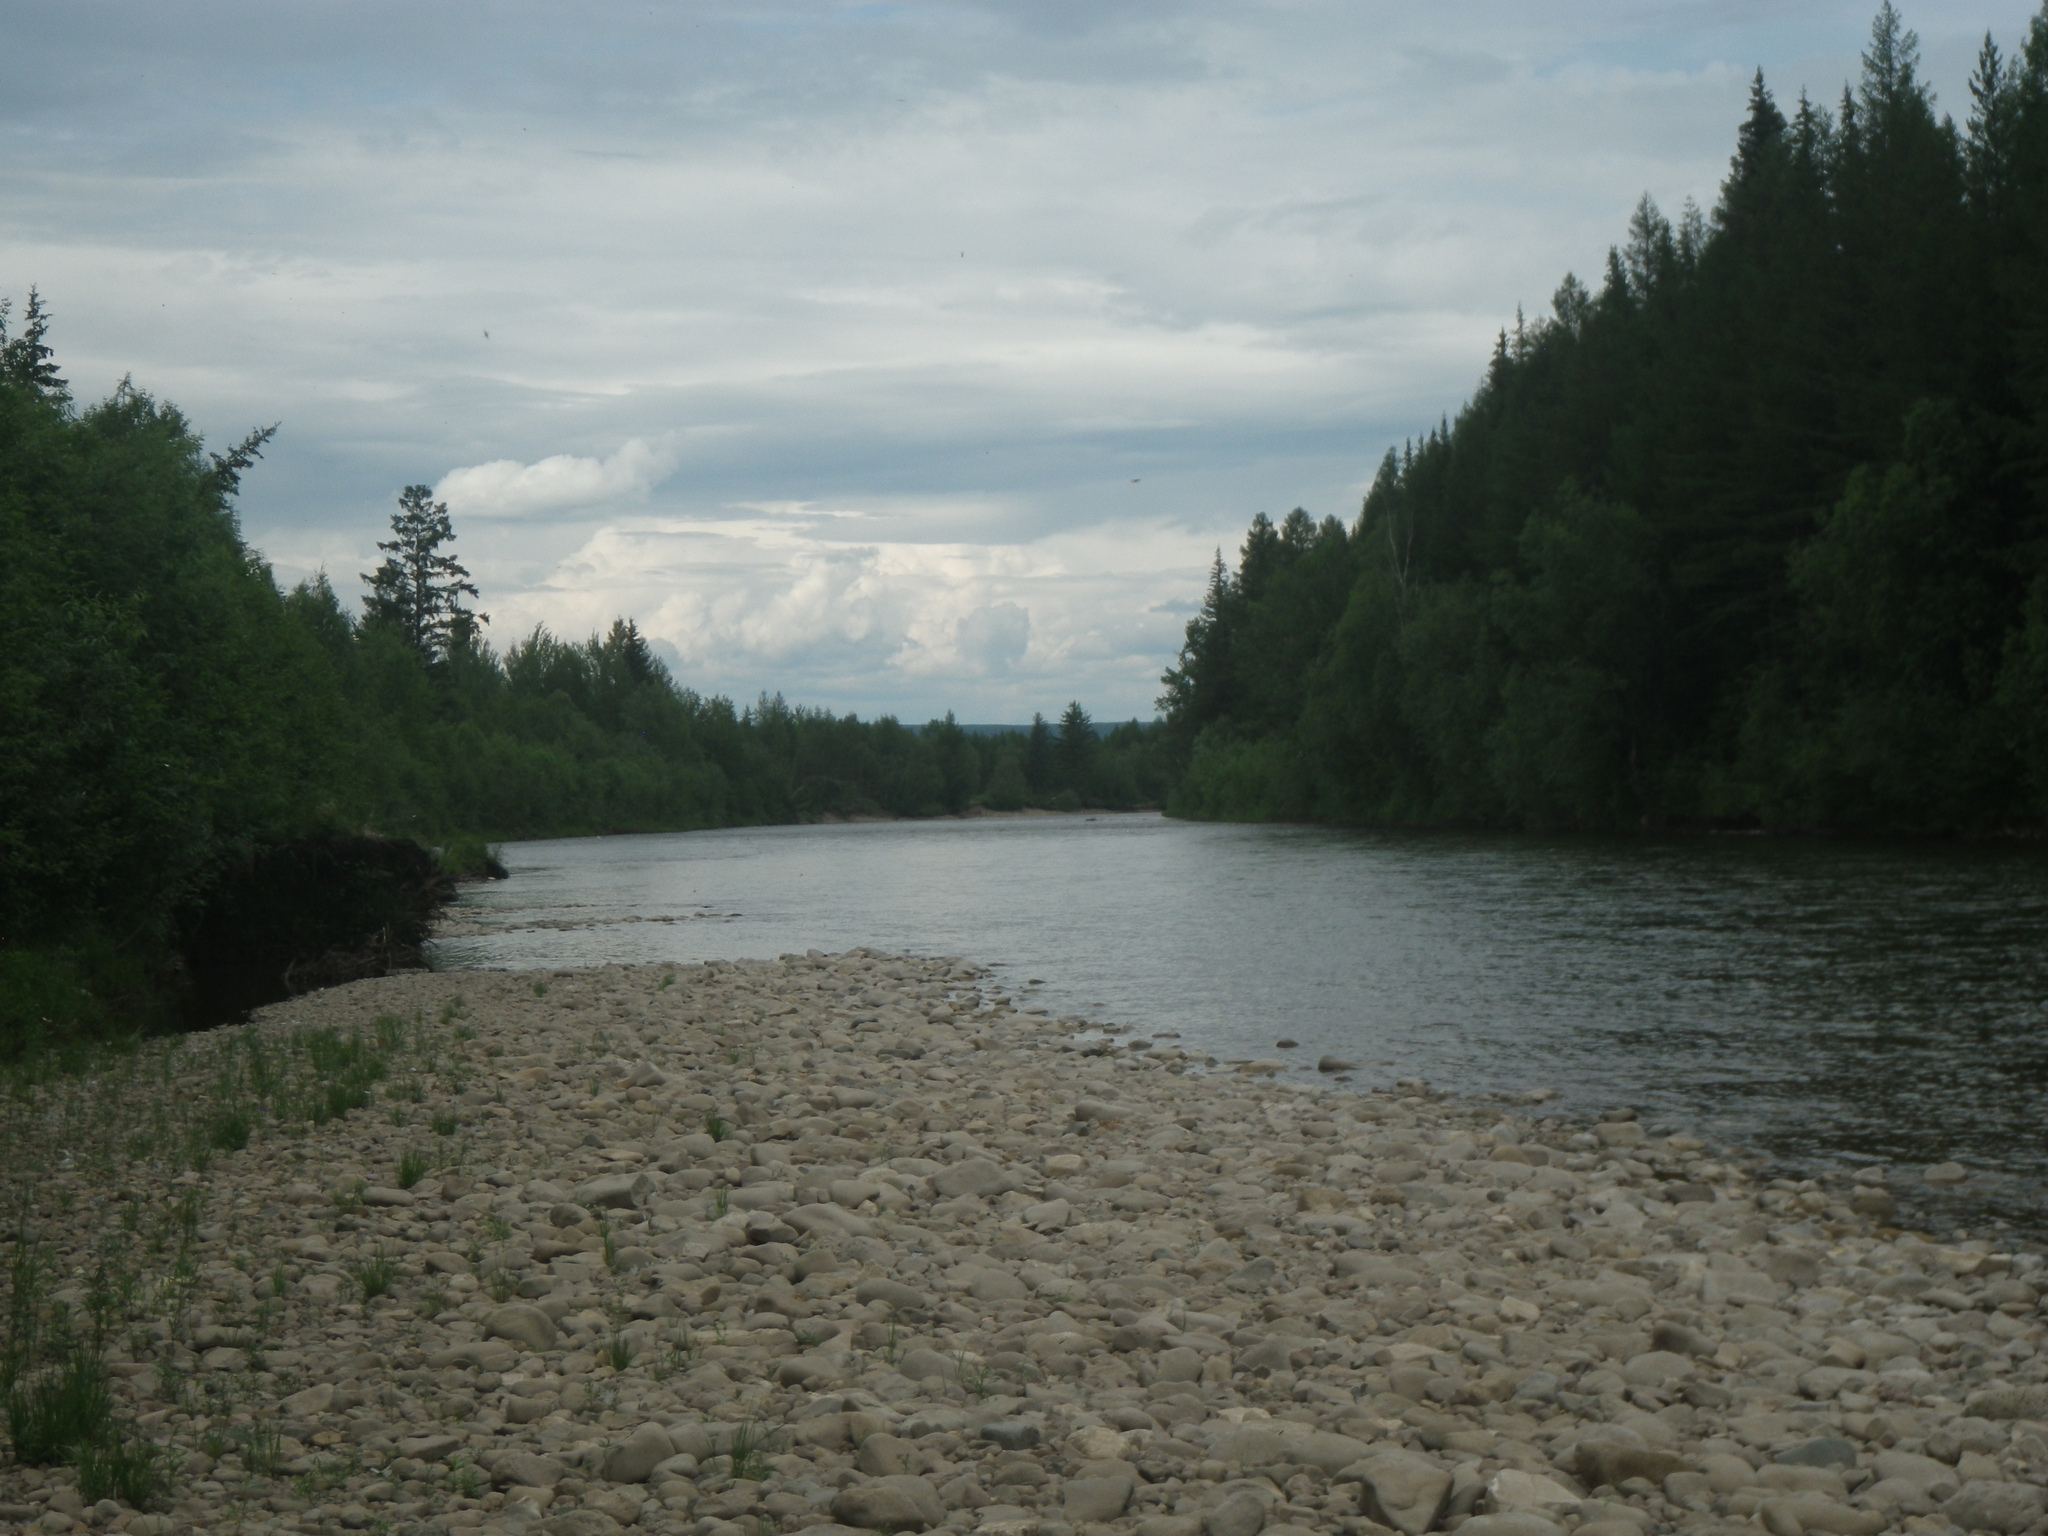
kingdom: Plantae
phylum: Tracheophyta
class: Pinopsida
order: Pinales
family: Pinaceae
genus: Picea
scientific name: Picea obovata
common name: Siberian spruce
